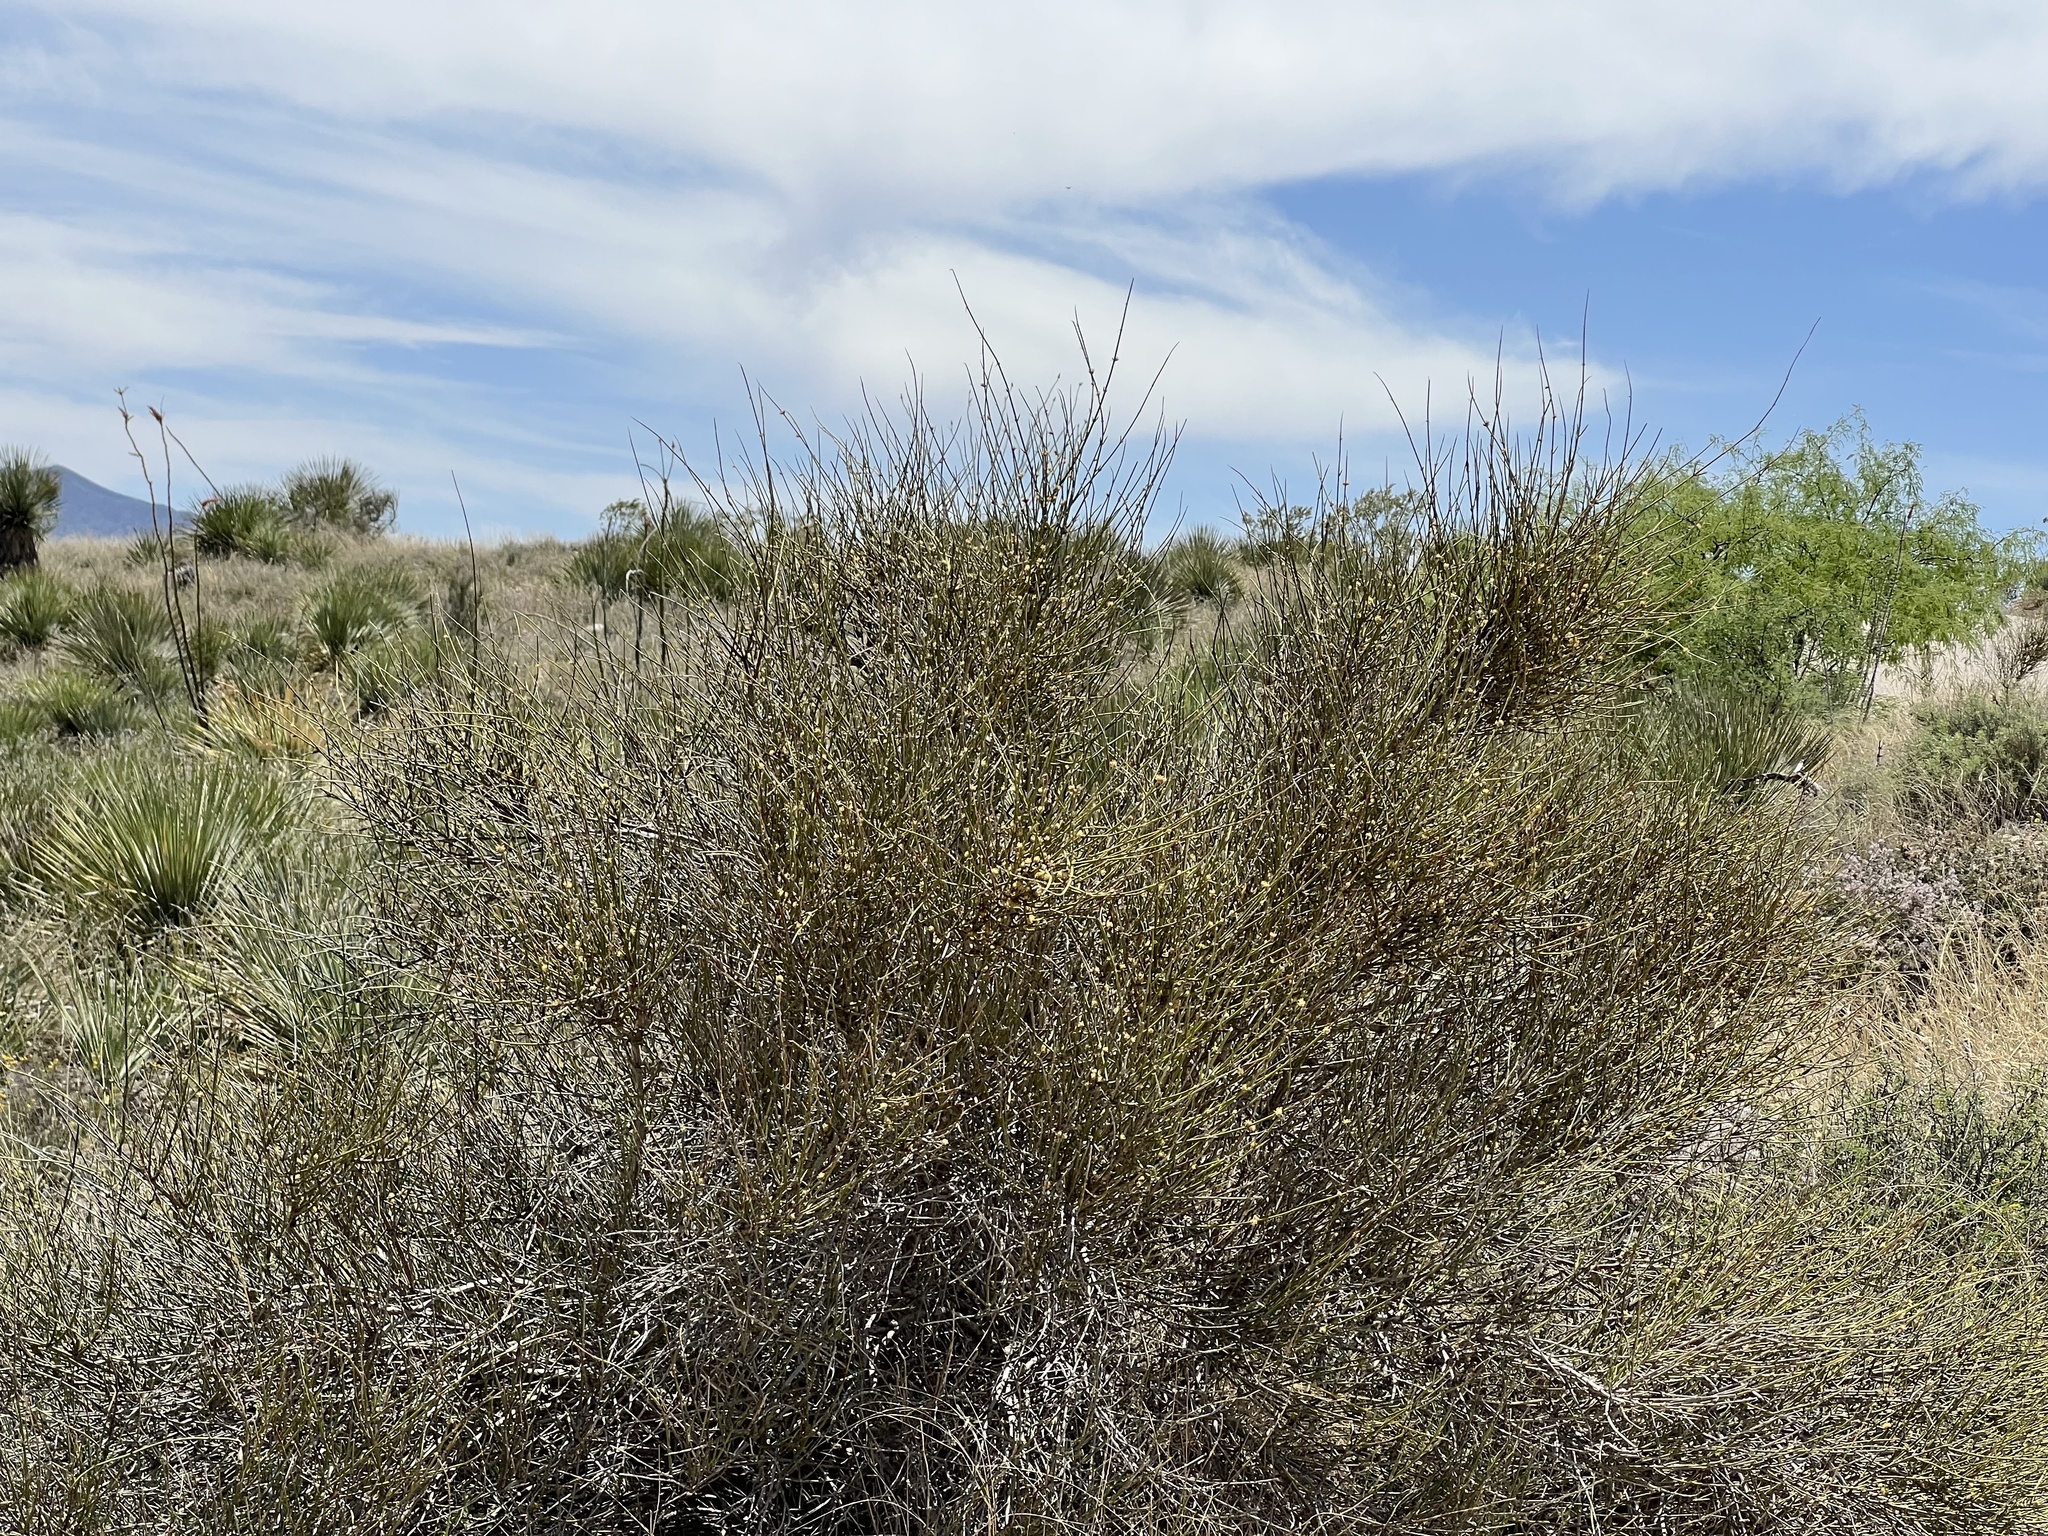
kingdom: Plantae
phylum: Tracheophyta
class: Gnetopsida
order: Ephedrales
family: Ephedraceae
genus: Ephedra
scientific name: Ephedra trifurca
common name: Mexican-tea
